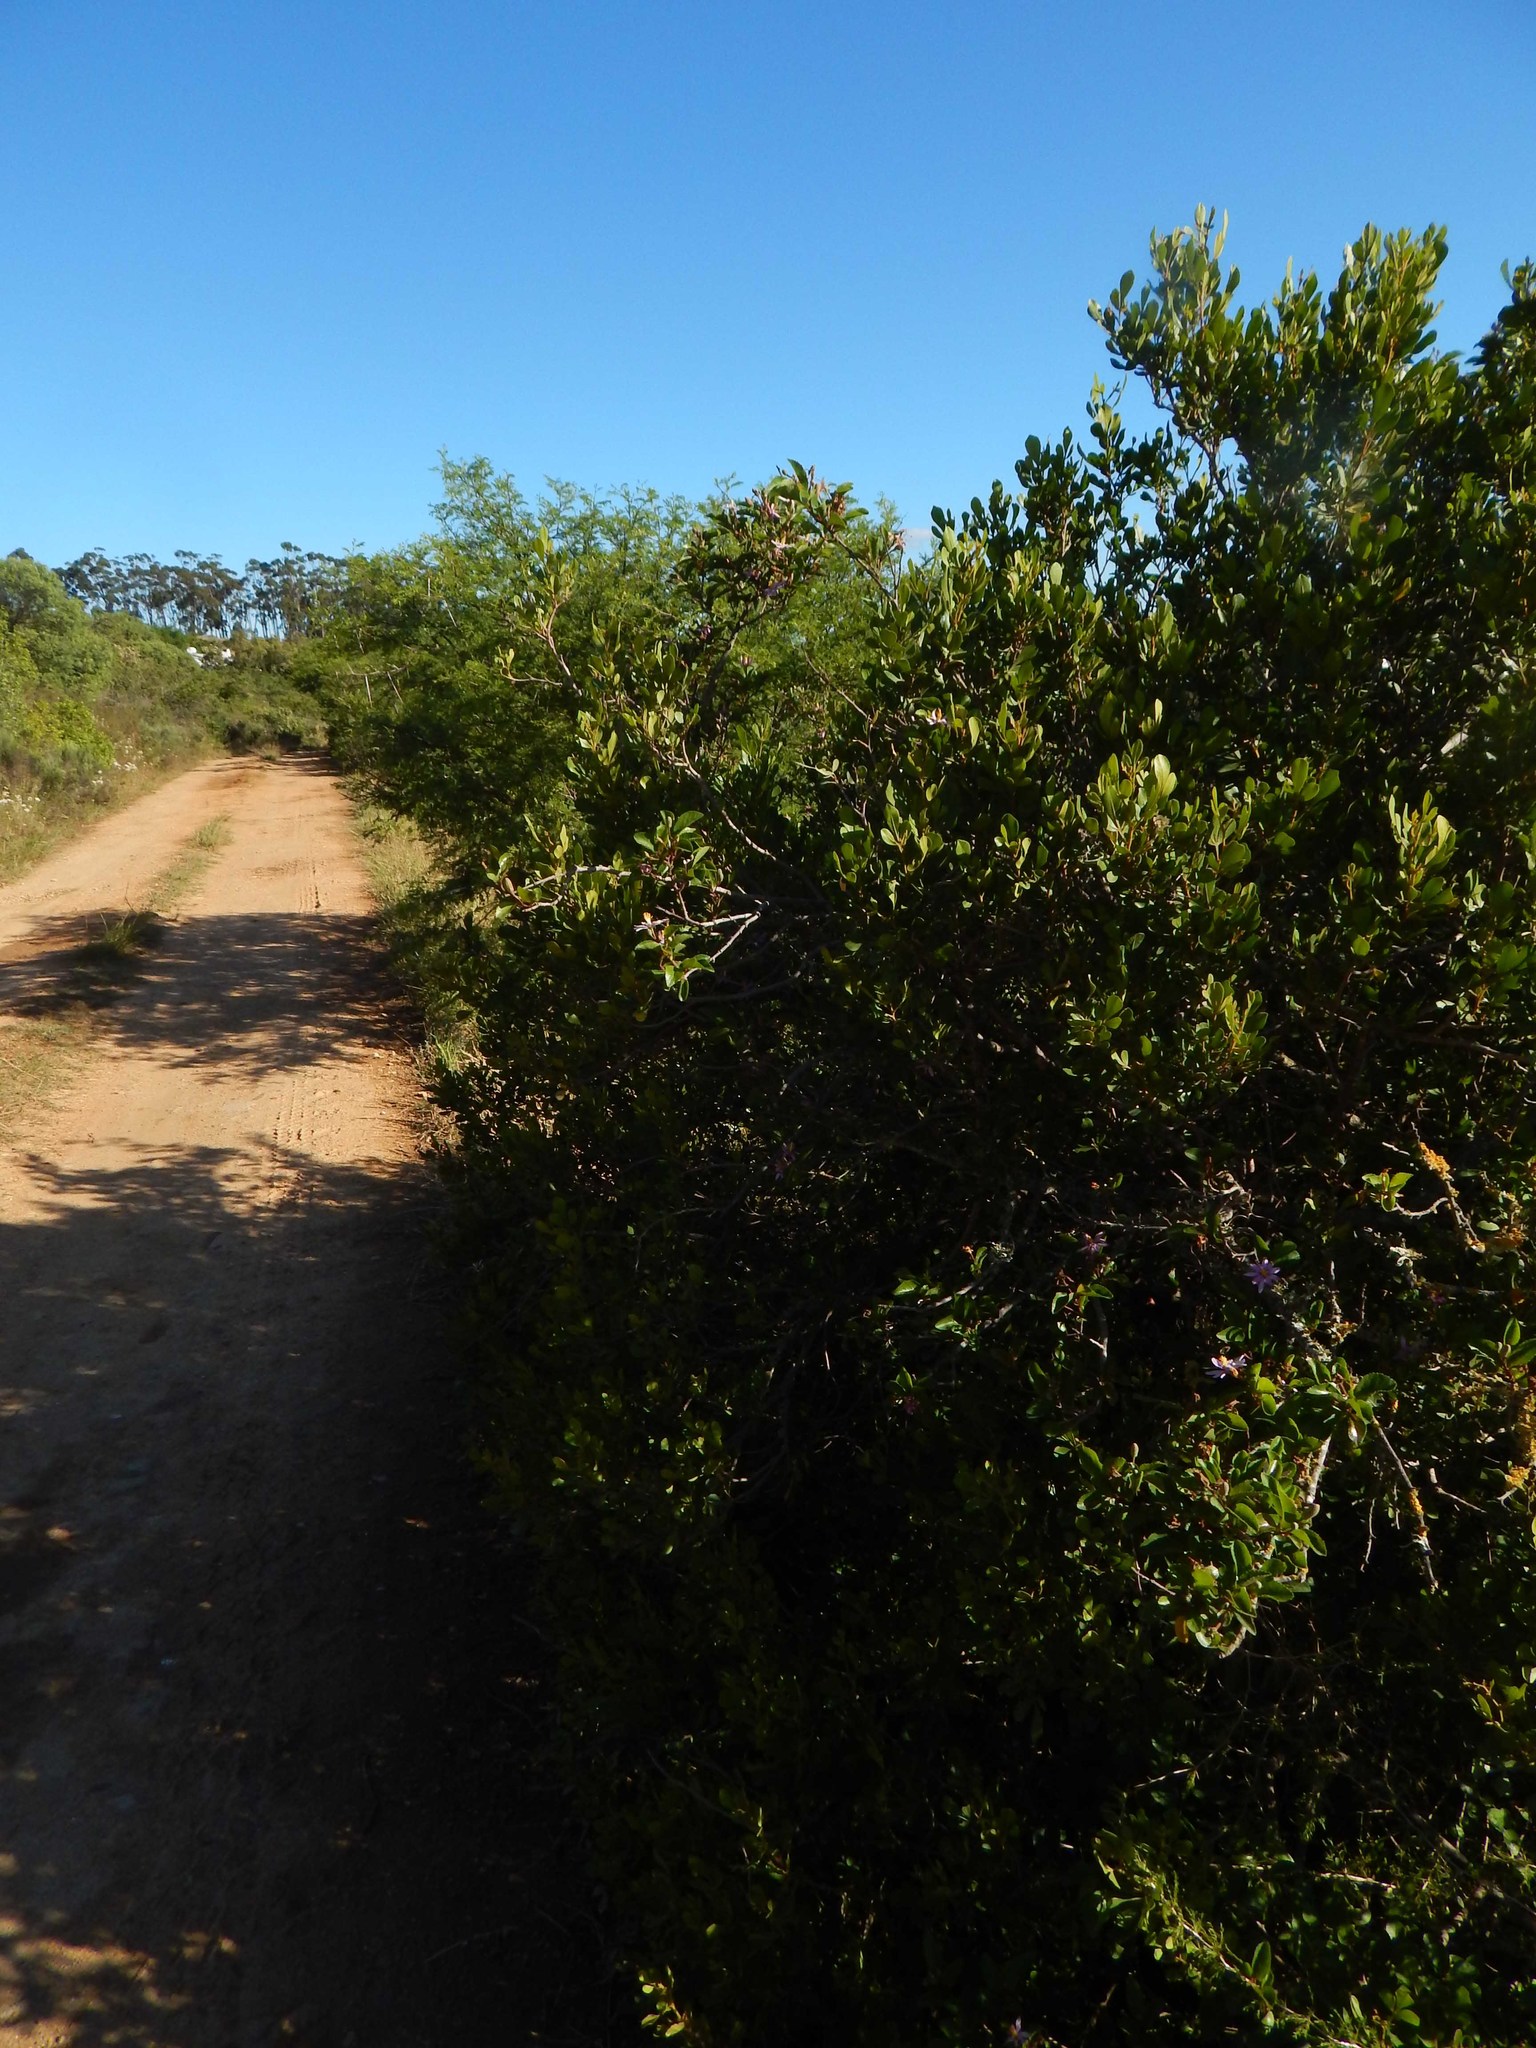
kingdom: Plantae
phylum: Tracheophyta
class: Magnoliopsida
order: Malvales
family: Malvaceae
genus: Grewia
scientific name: Grewia occidentalis
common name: Crossberry
